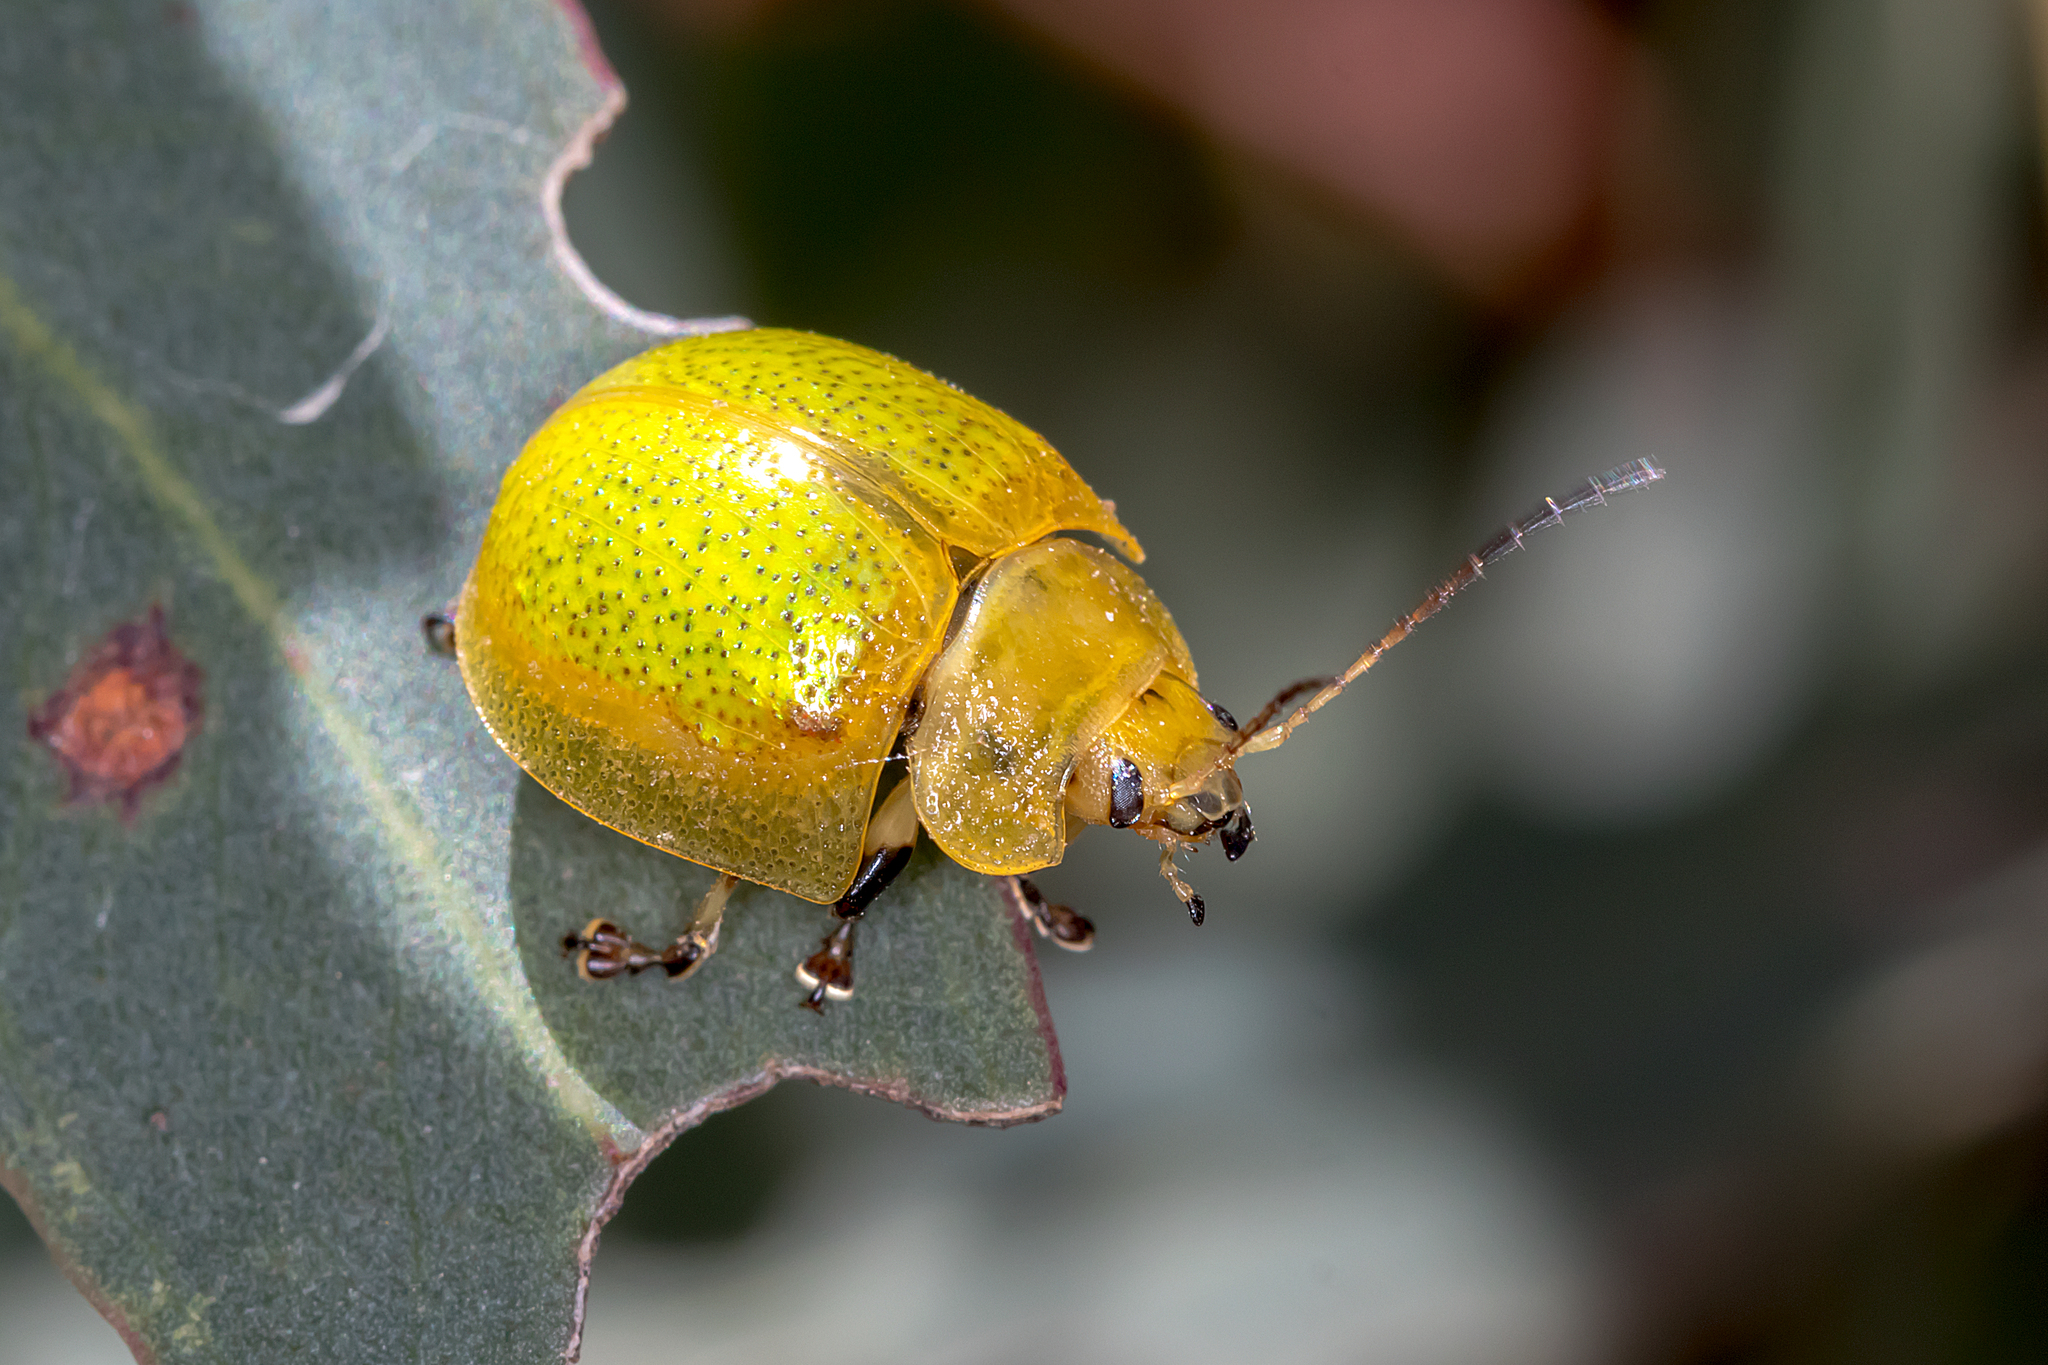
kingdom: Animalia
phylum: Arthropoda
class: Insecta
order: Coleoptera
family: Chrysomelidae
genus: Paropsisterna
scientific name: Paropsisterna
